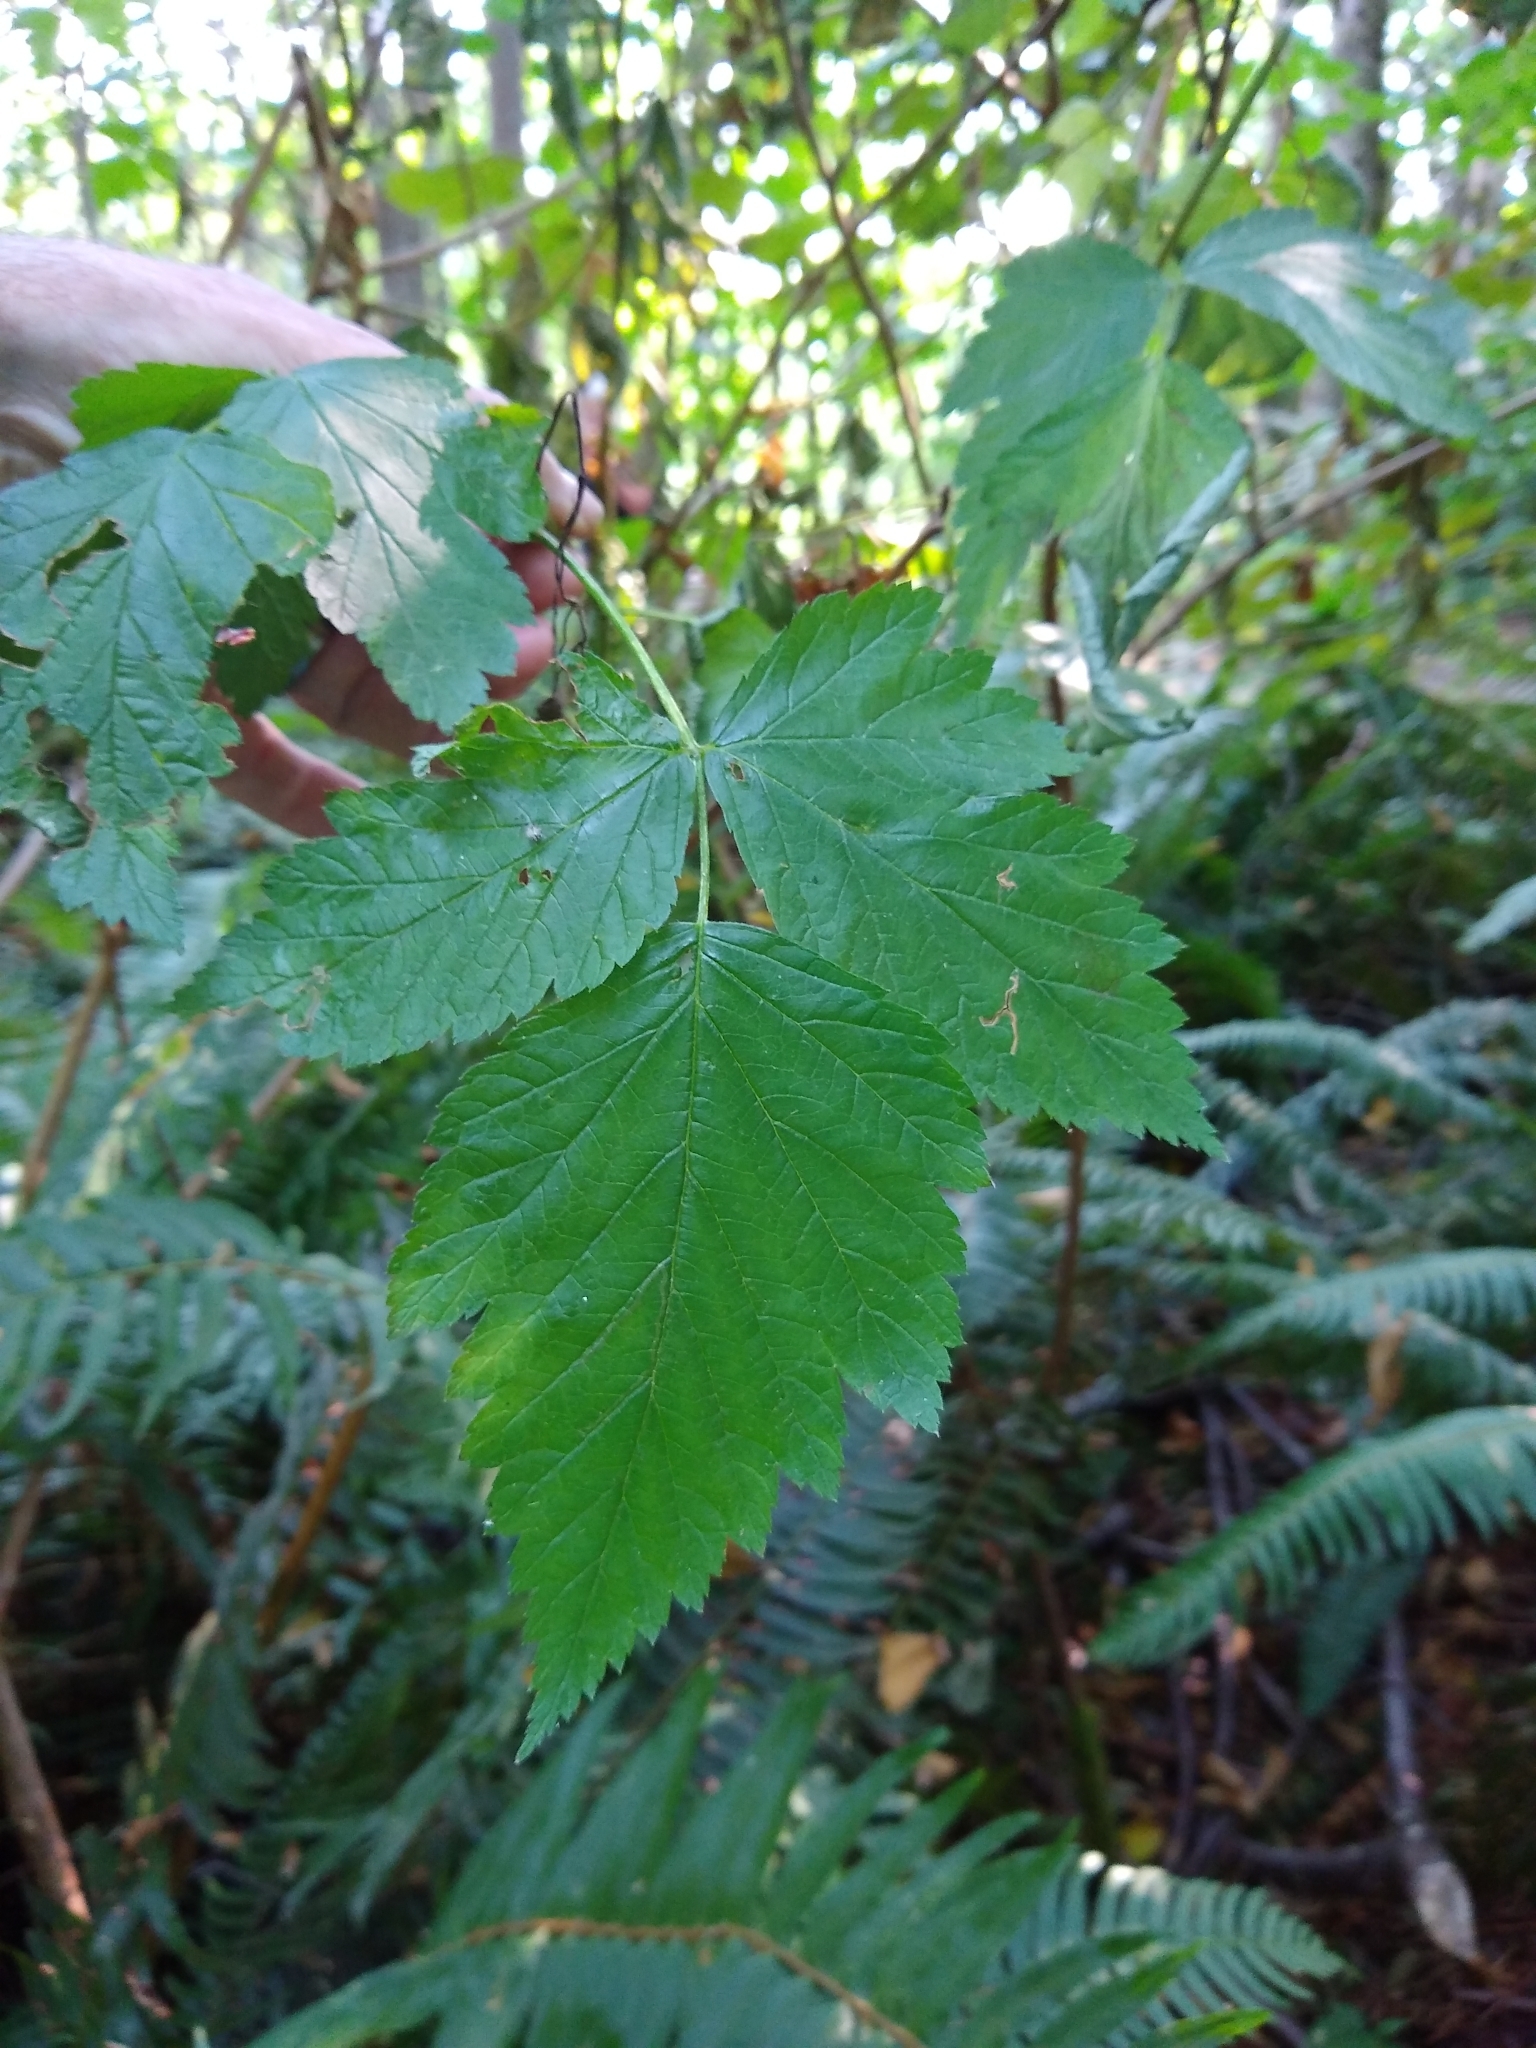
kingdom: Plantae
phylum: Tracheophyta
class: Magnoliopsida
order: Rosales
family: Rosaceae
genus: Rubus
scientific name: Rubus spectabilis
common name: Salmonberry
